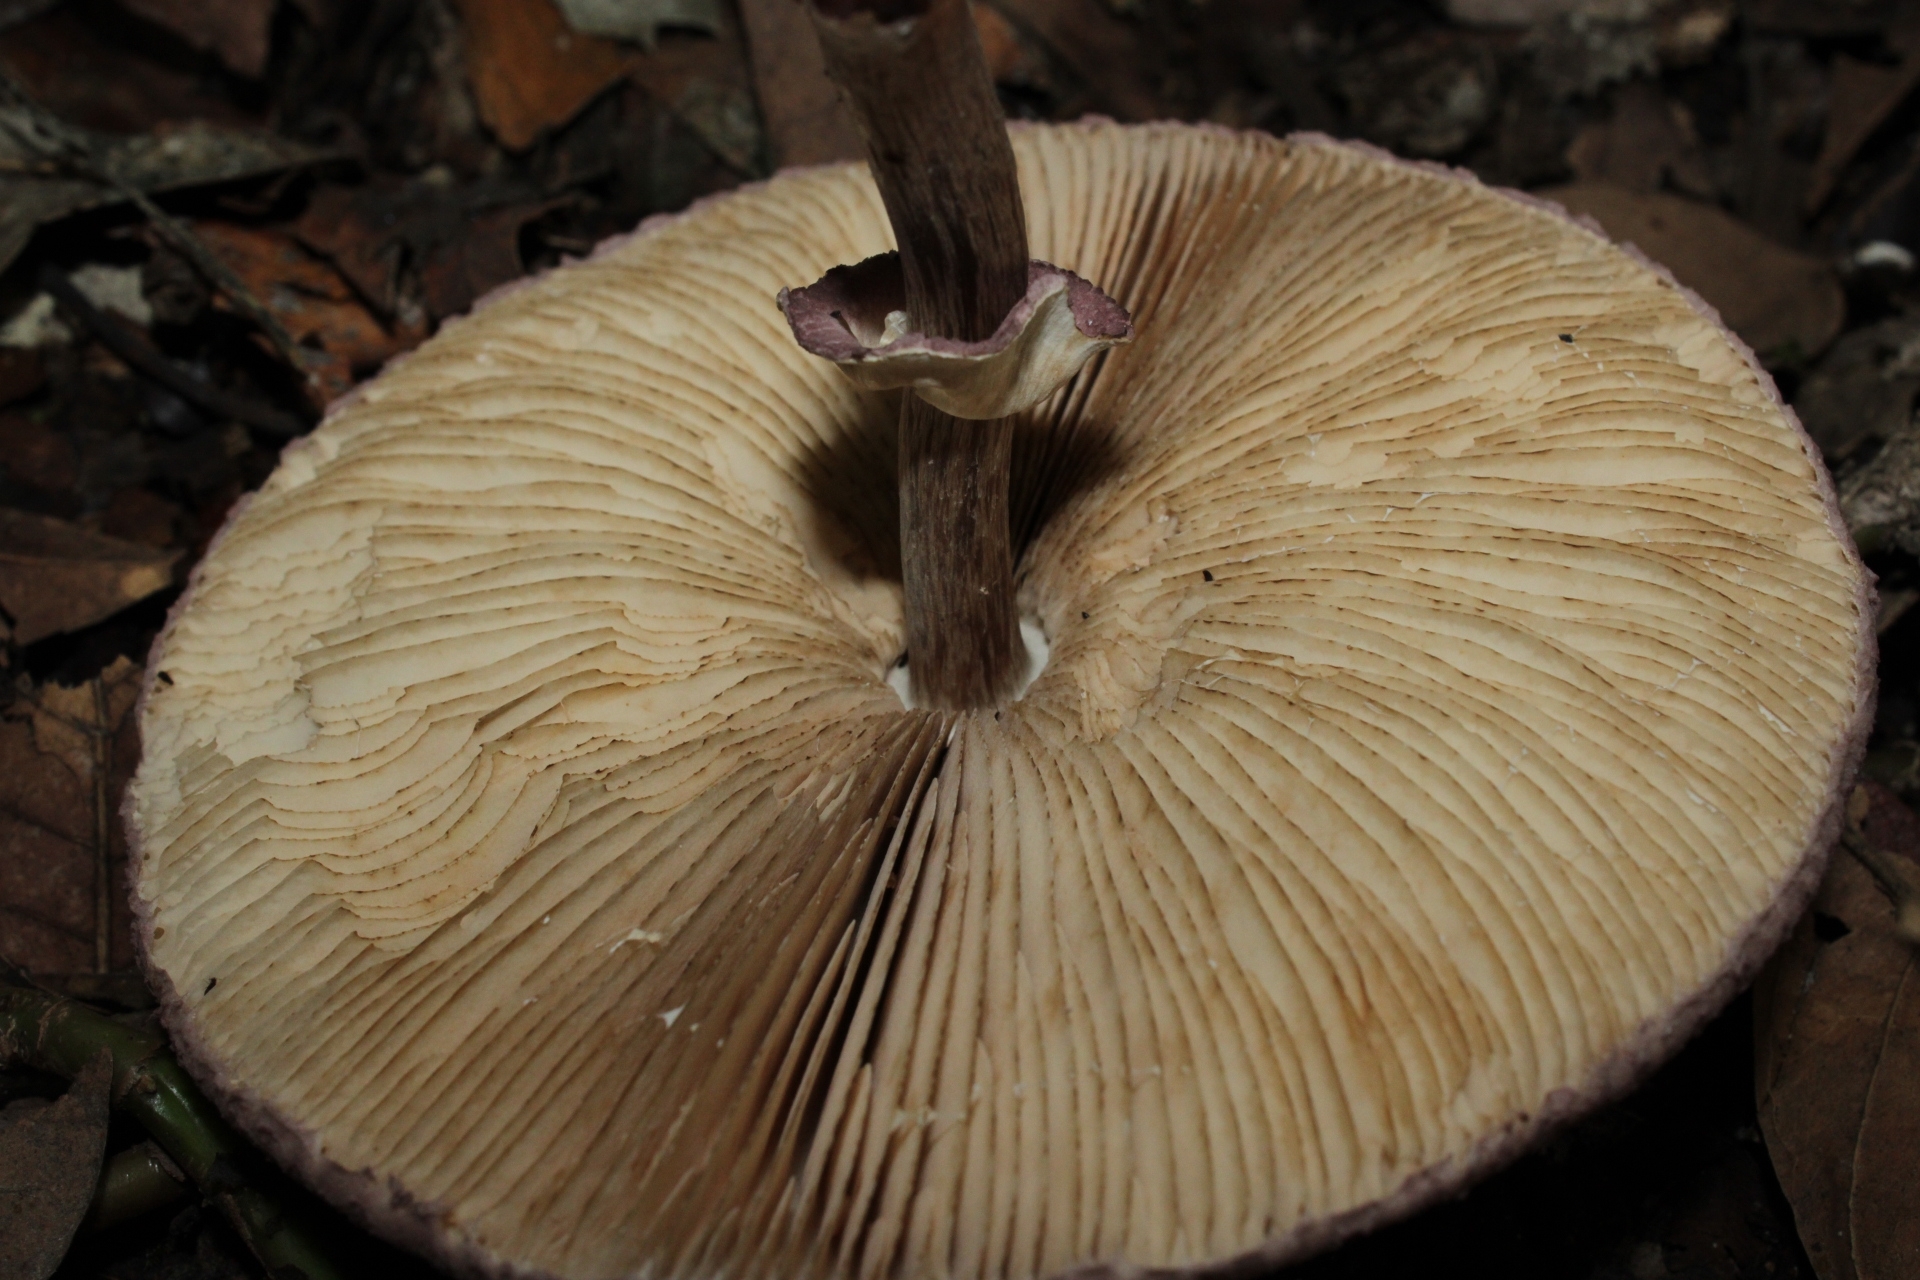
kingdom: Fungi
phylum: Basidiomycota
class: Agaricomycetes
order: Agaricales
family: Agaricaceae
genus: Leucoagaricus
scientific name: Leucoagaricus lilaceus
